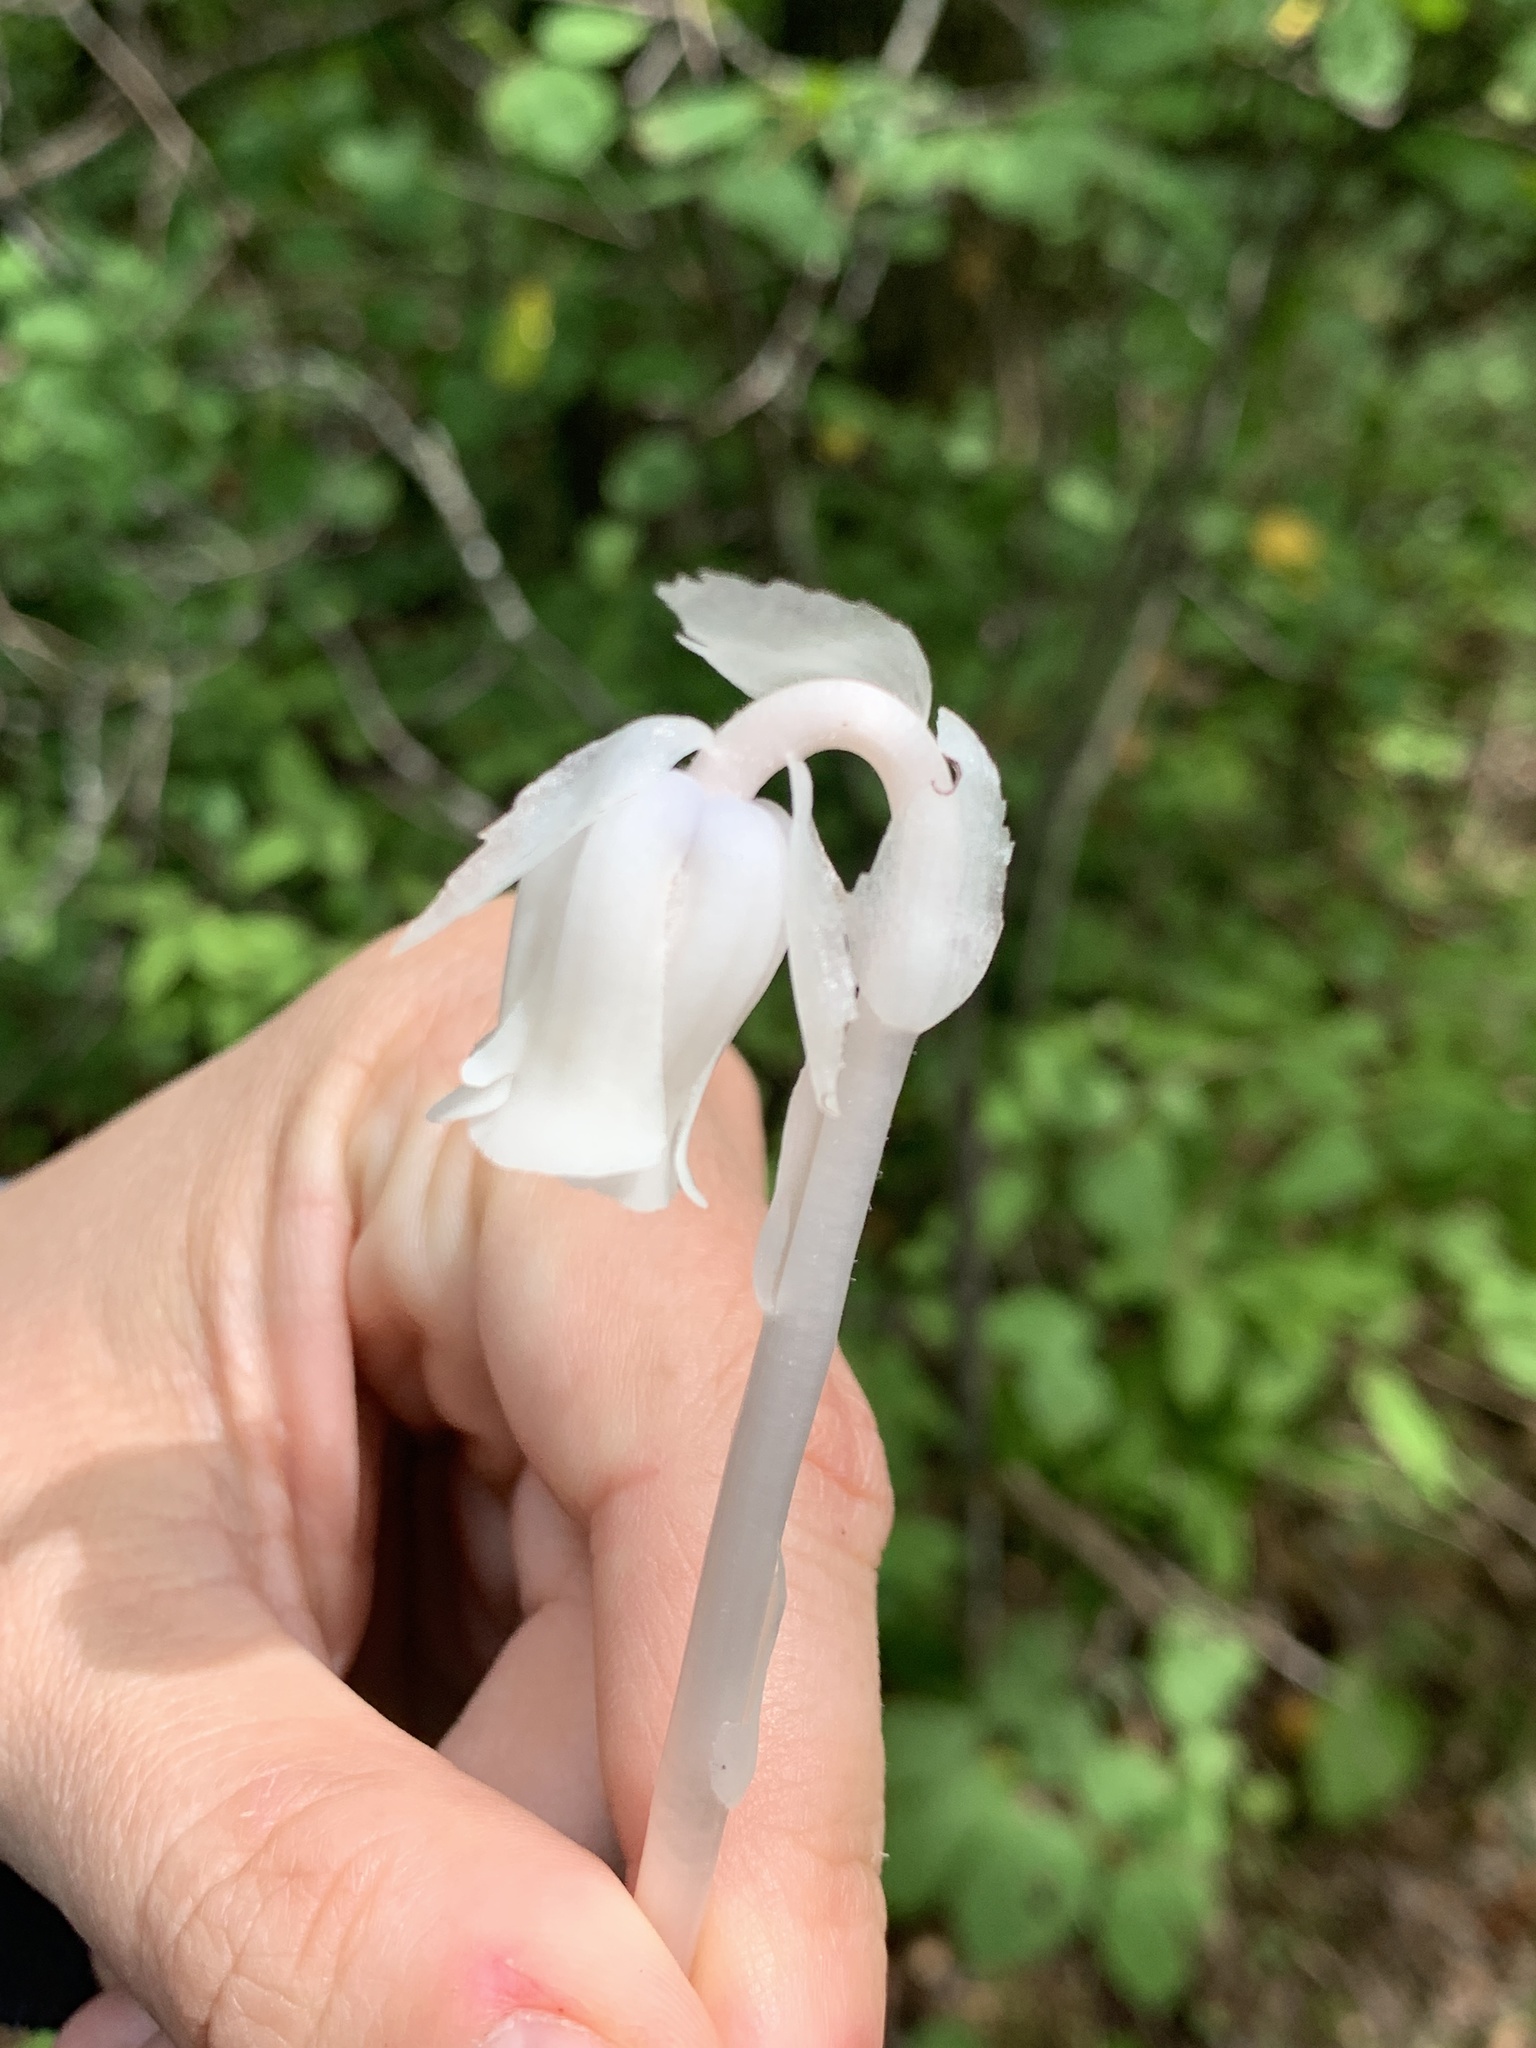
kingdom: Plantae
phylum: Tracheophyta
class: Magnoliopsida
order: Ericales
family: Ericaceae
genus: Monotropa
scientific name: Monotropa uniflora
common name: Convulsion root
